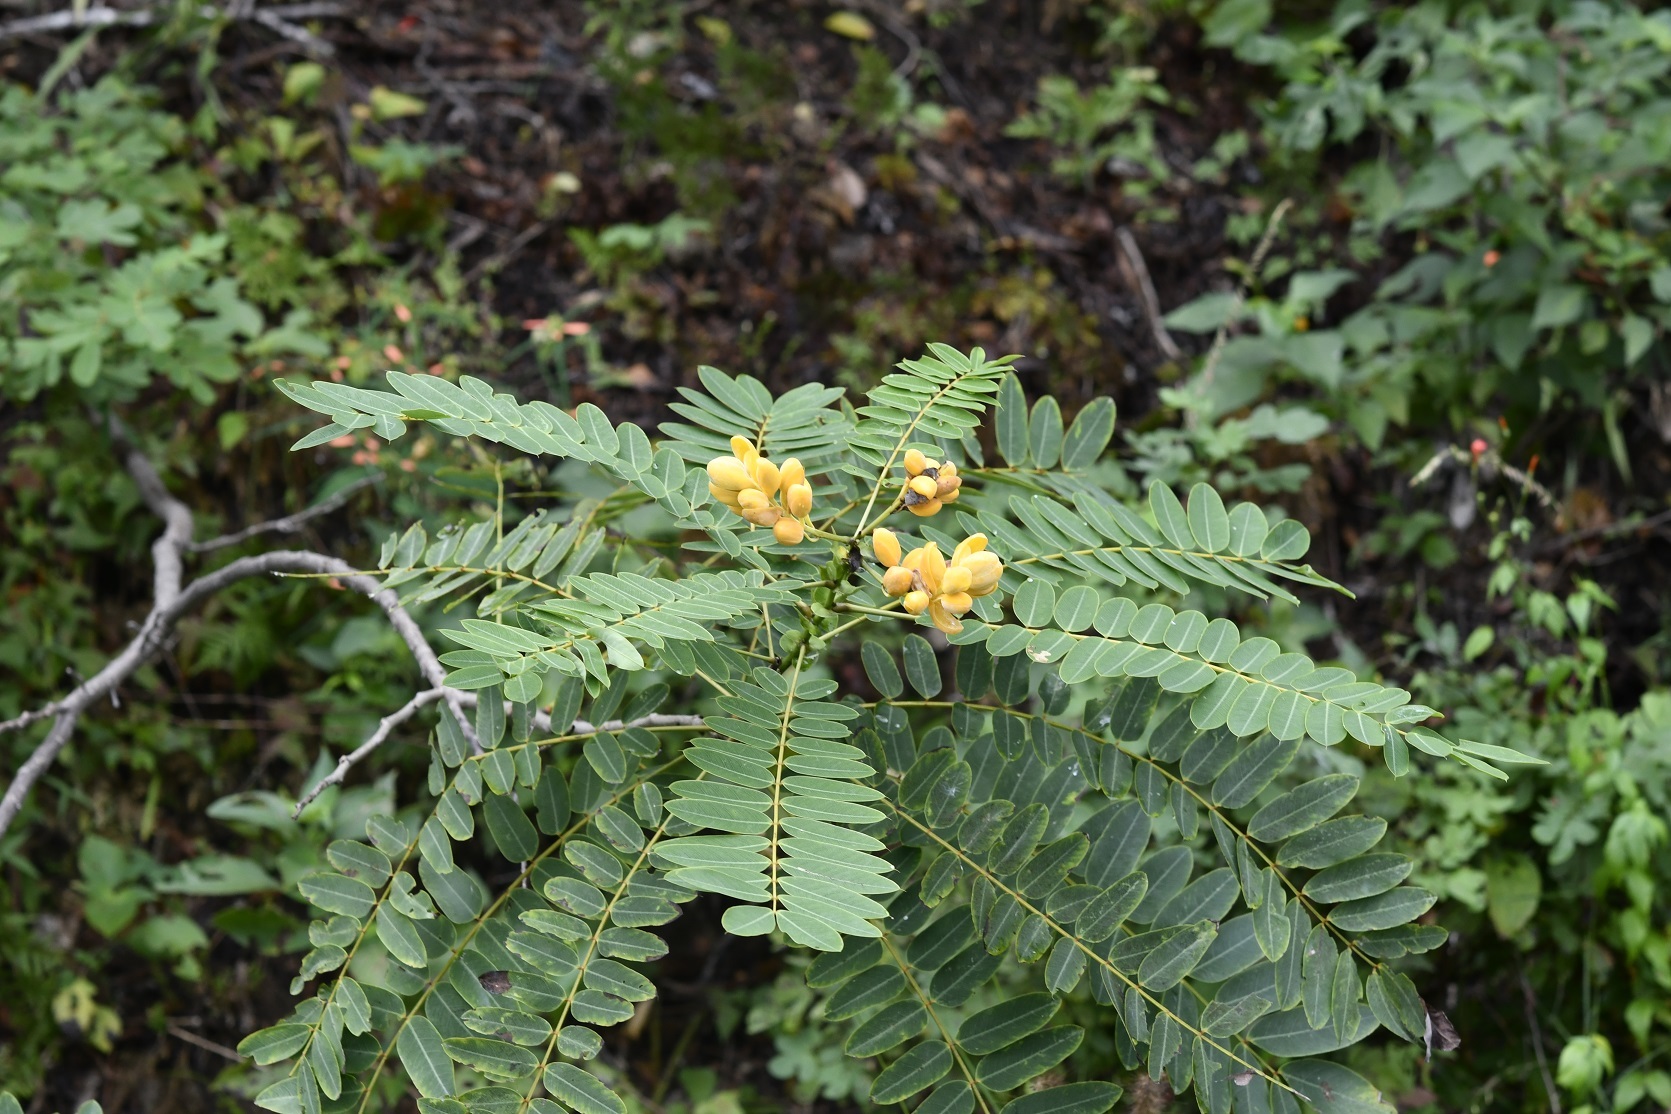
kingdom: Plantae
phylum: Tracheophyta
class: Magnoliopsida
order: Fabales
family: Fabaceae
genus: Senna
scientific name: Senna spectabilis
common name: Casia amarilla
